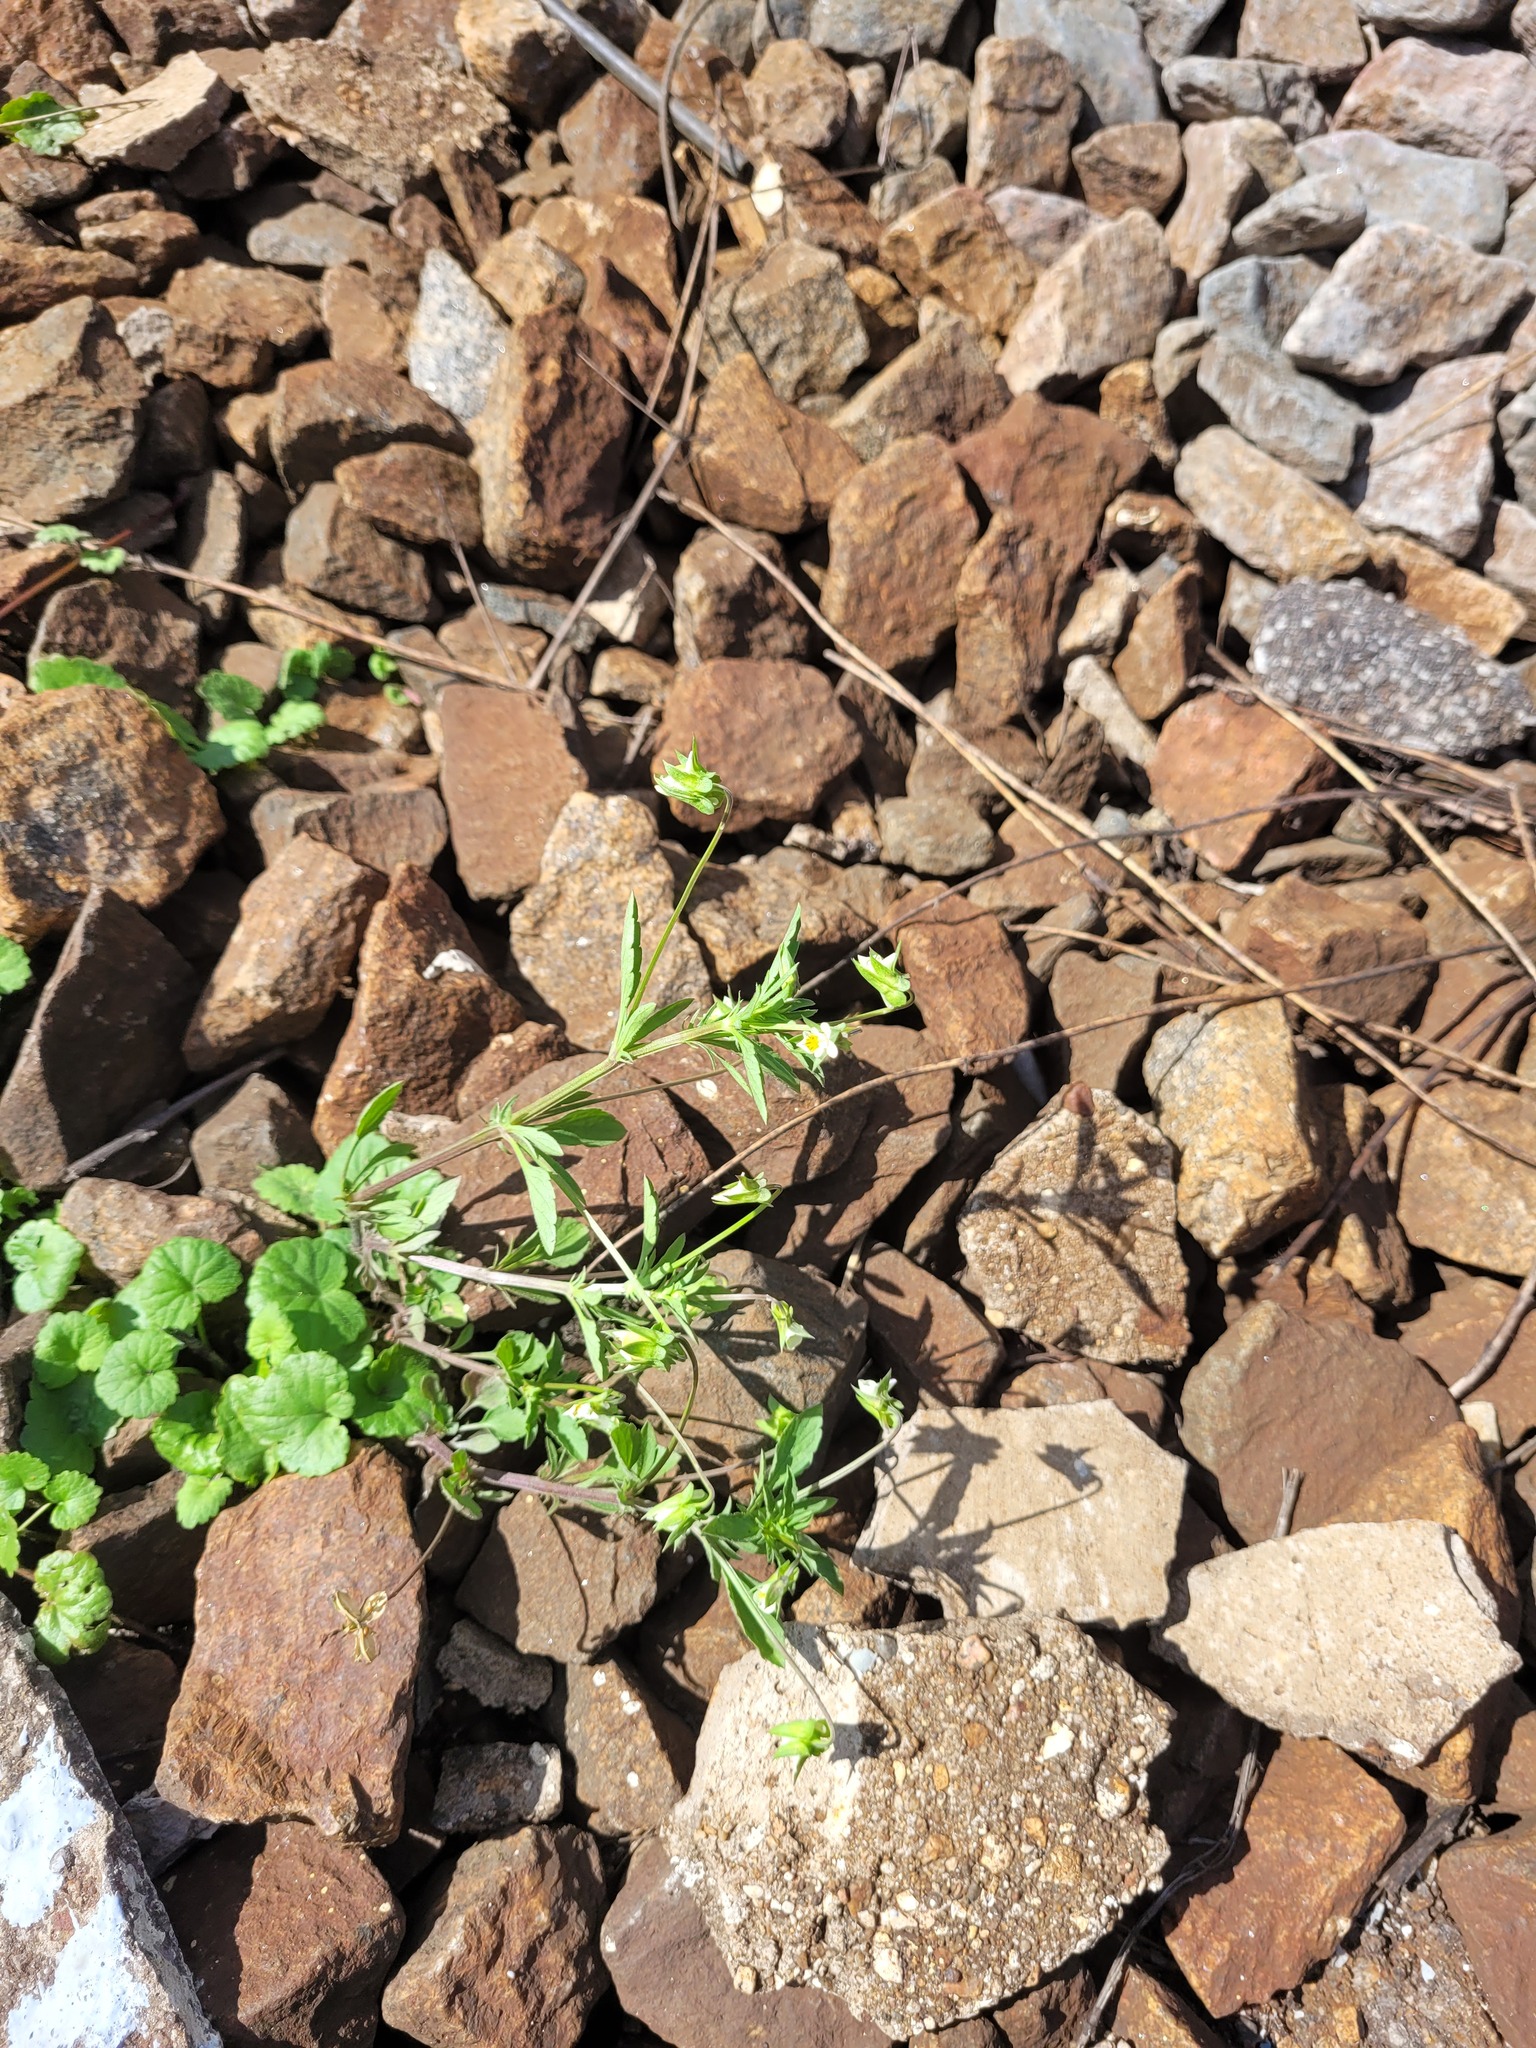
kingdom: Plantae
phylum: Tracheophyta
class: Magnoliopsida
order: Malpighiales
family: Violaceae
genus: Viola
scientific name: Viola arvensis
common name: Field pansy
